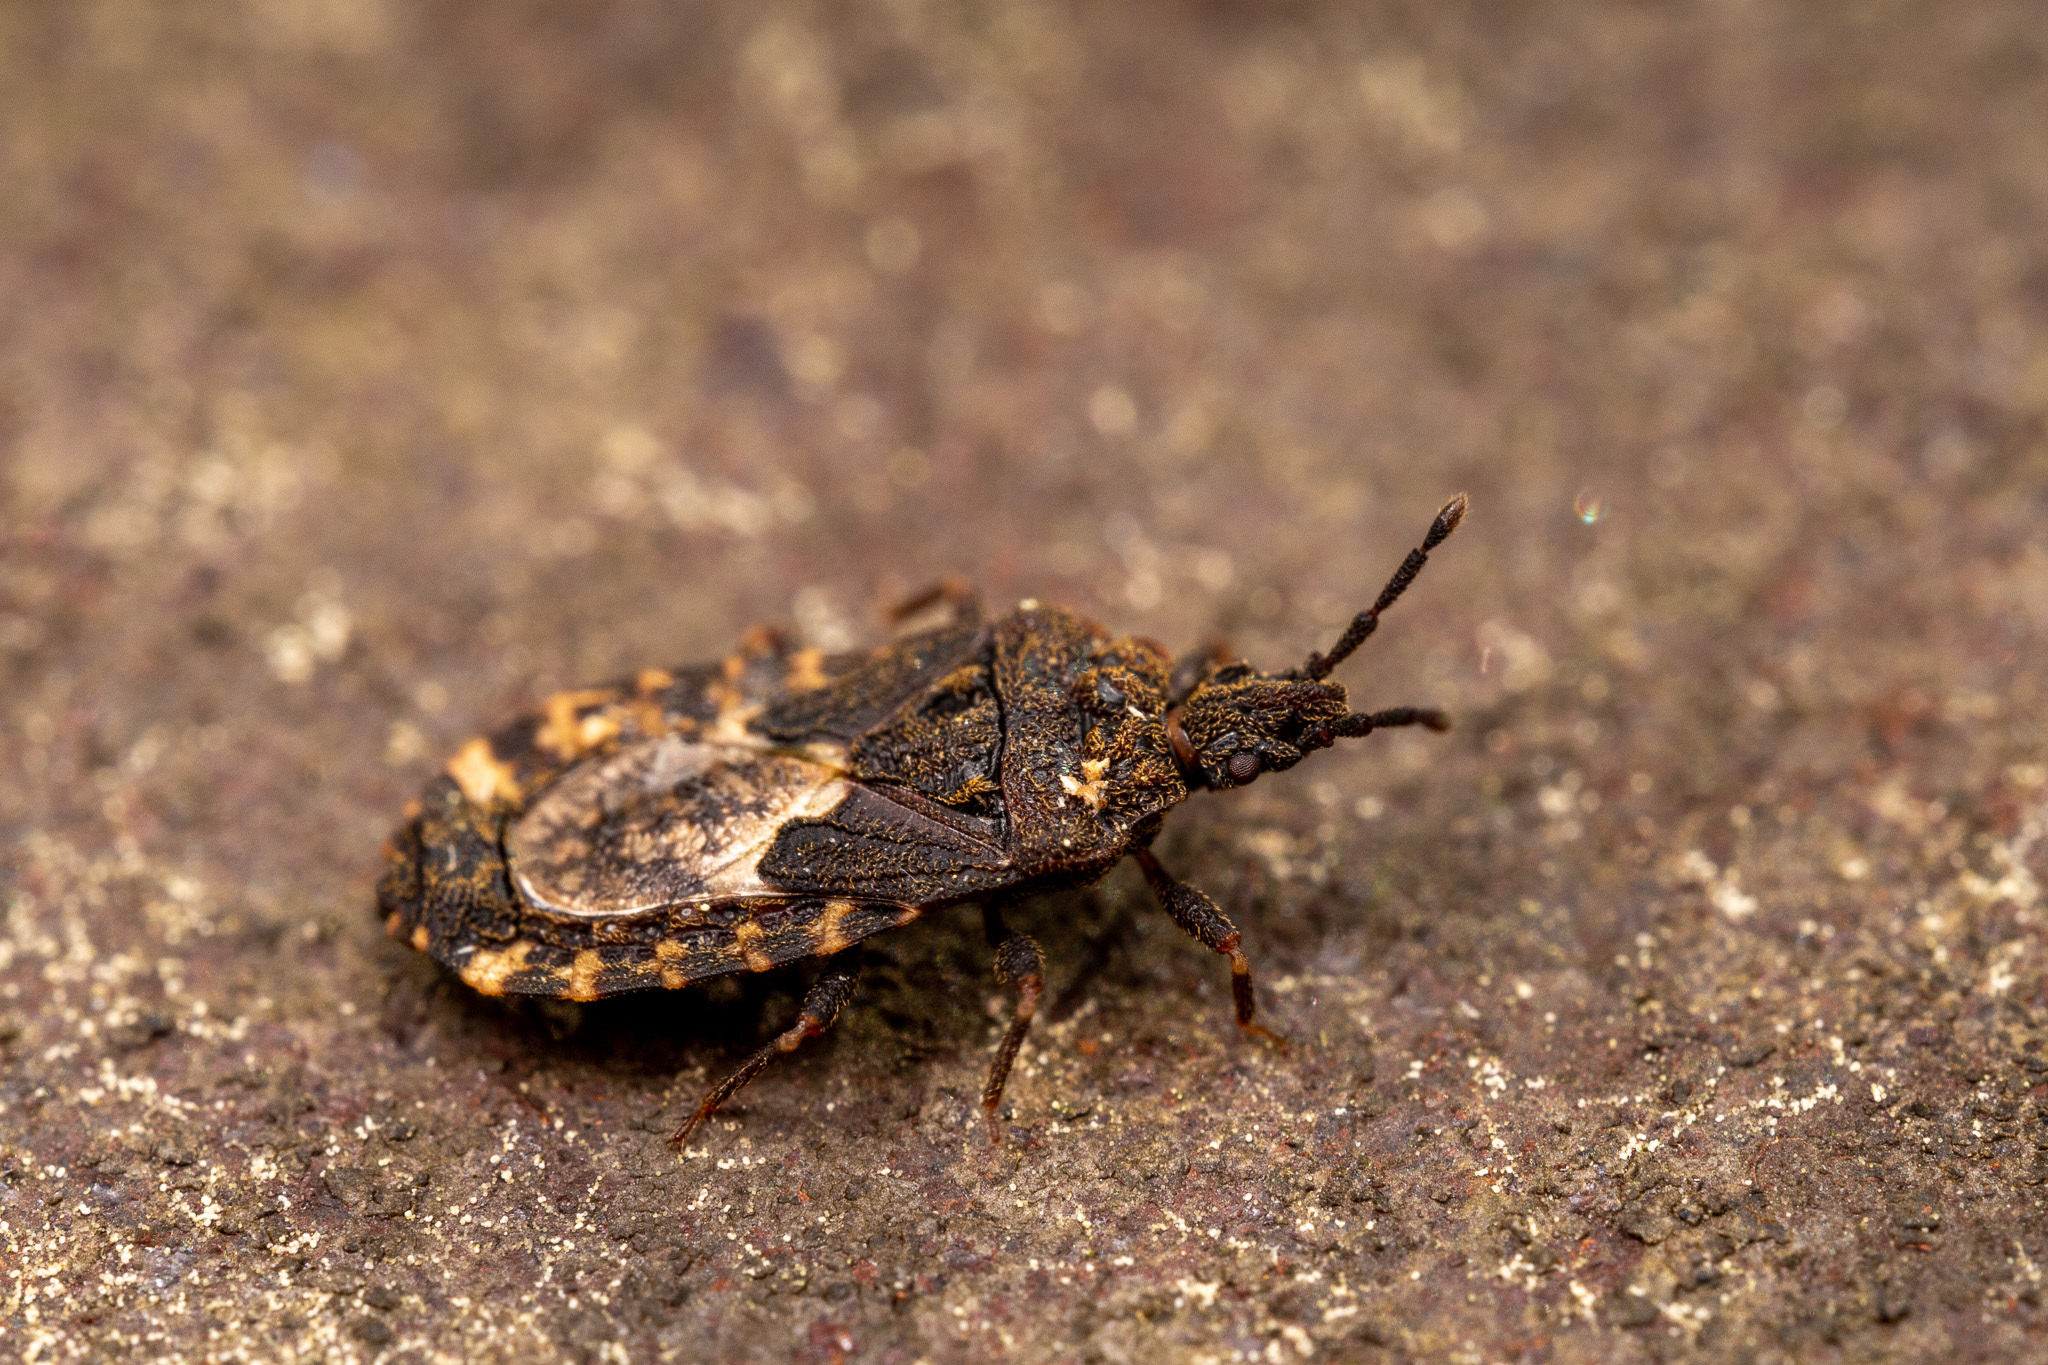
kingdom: Animalia
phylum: Arthropoda
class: Insecta
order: Hemiptera
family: Aradidae
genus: Mezira
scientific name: Mezira
